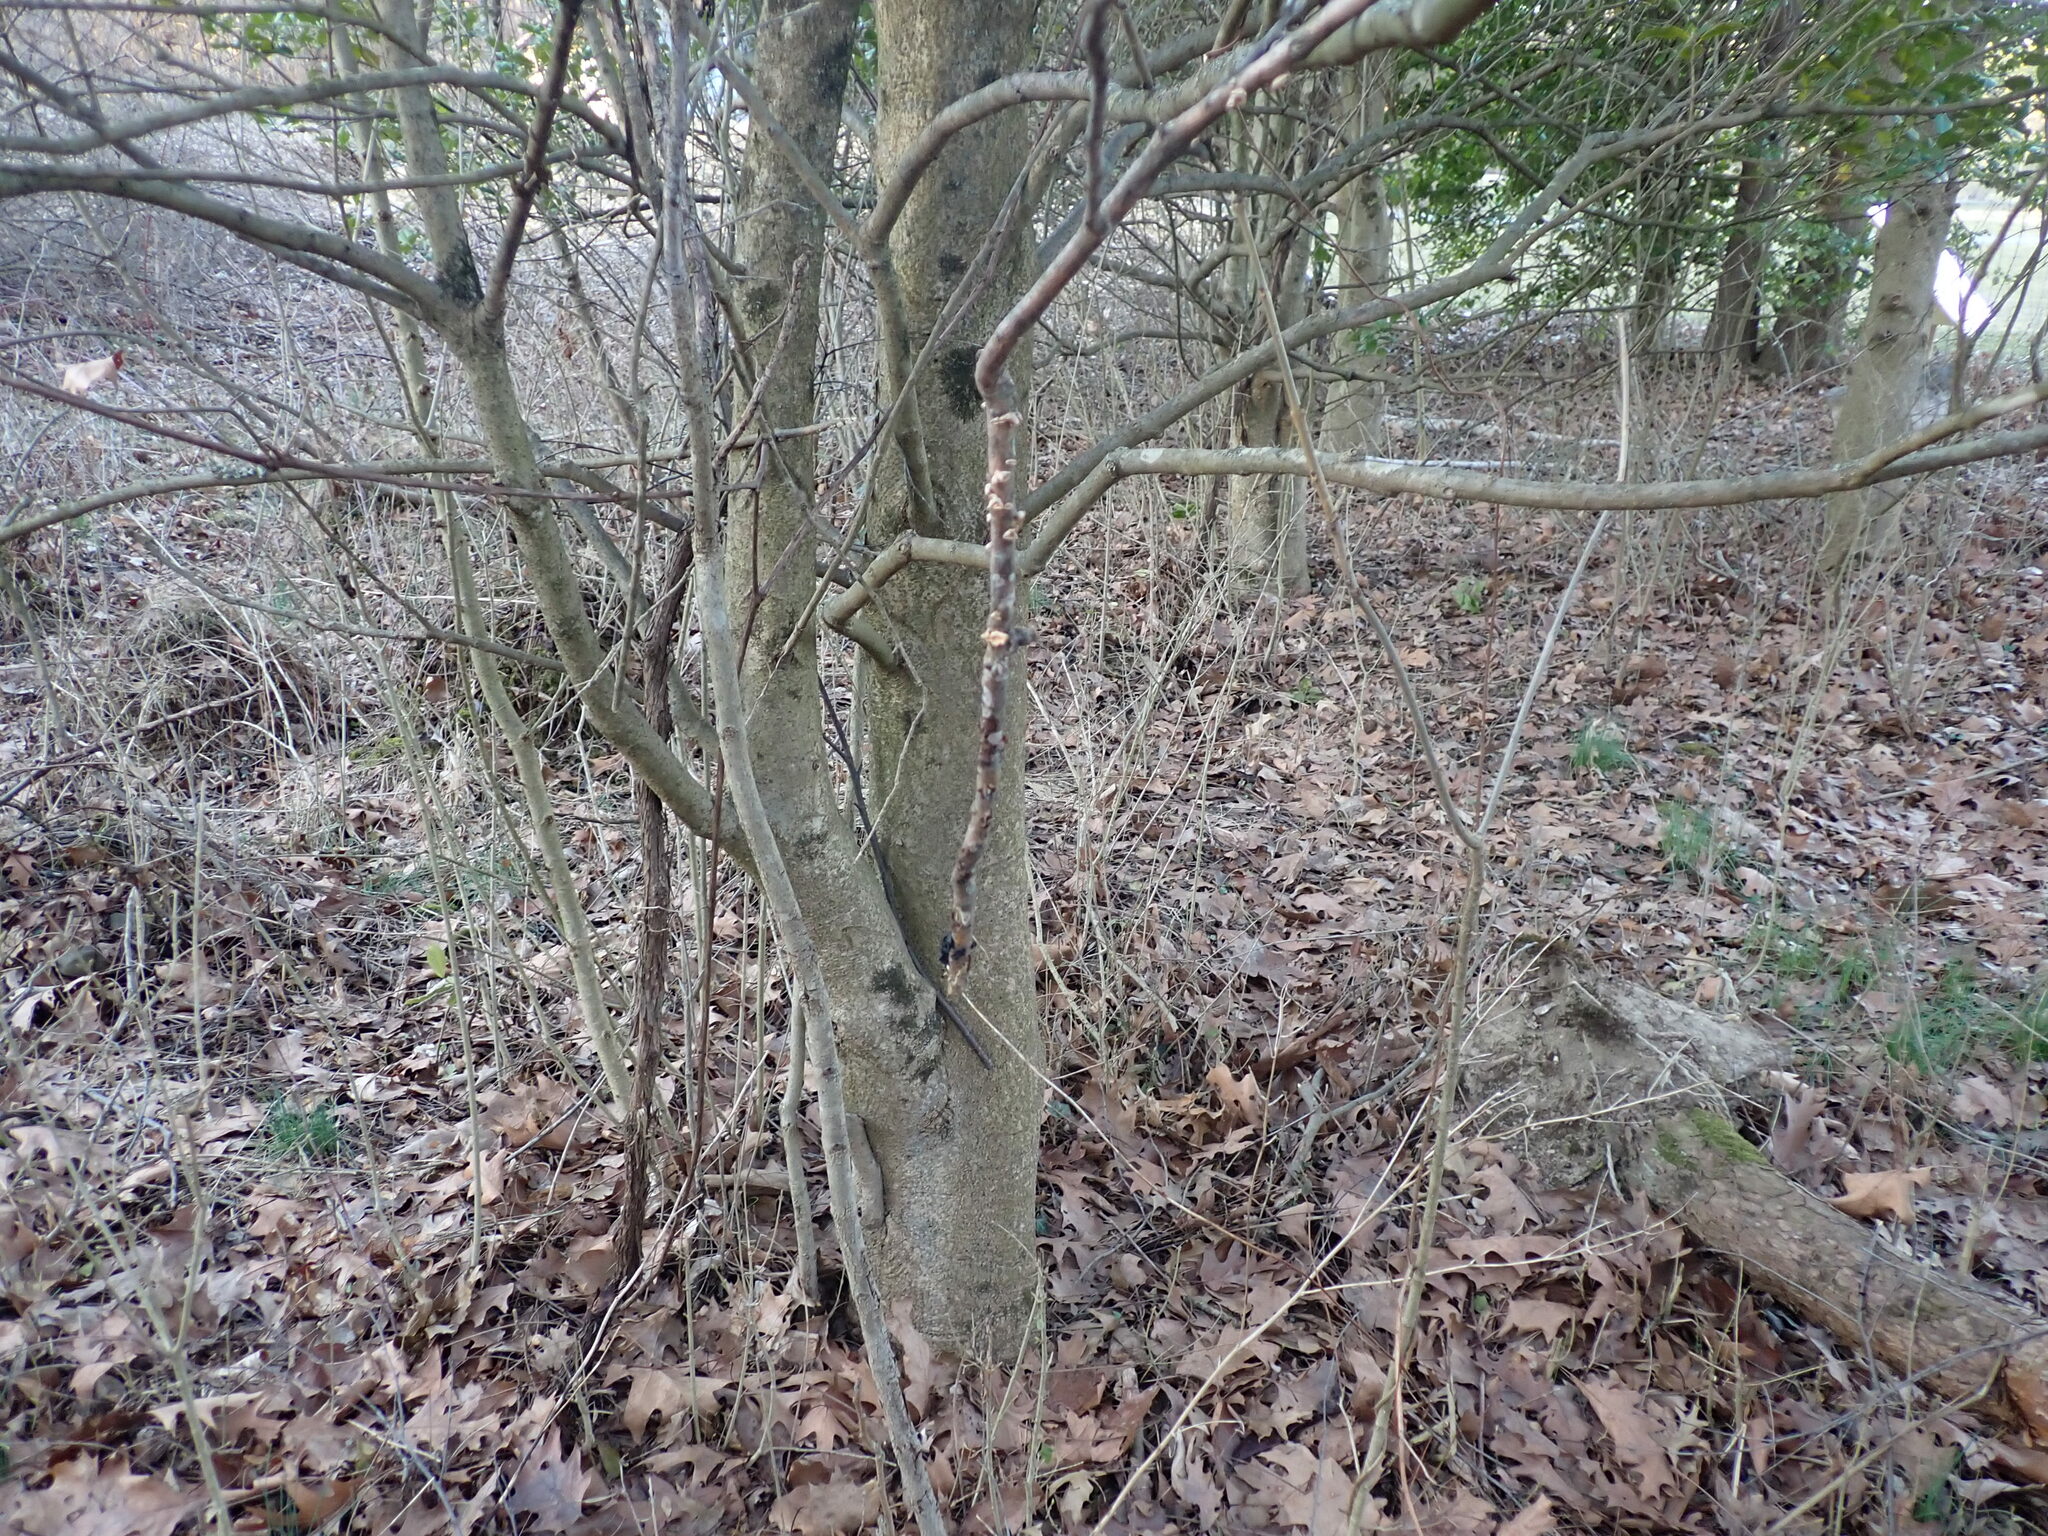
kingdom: Plantae
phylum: Tracheophyta
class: Magnoliopsida
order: Aquifoliales
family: Aquifoliaceae
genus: Ilex
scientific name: Ilex opaca
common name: American holly
